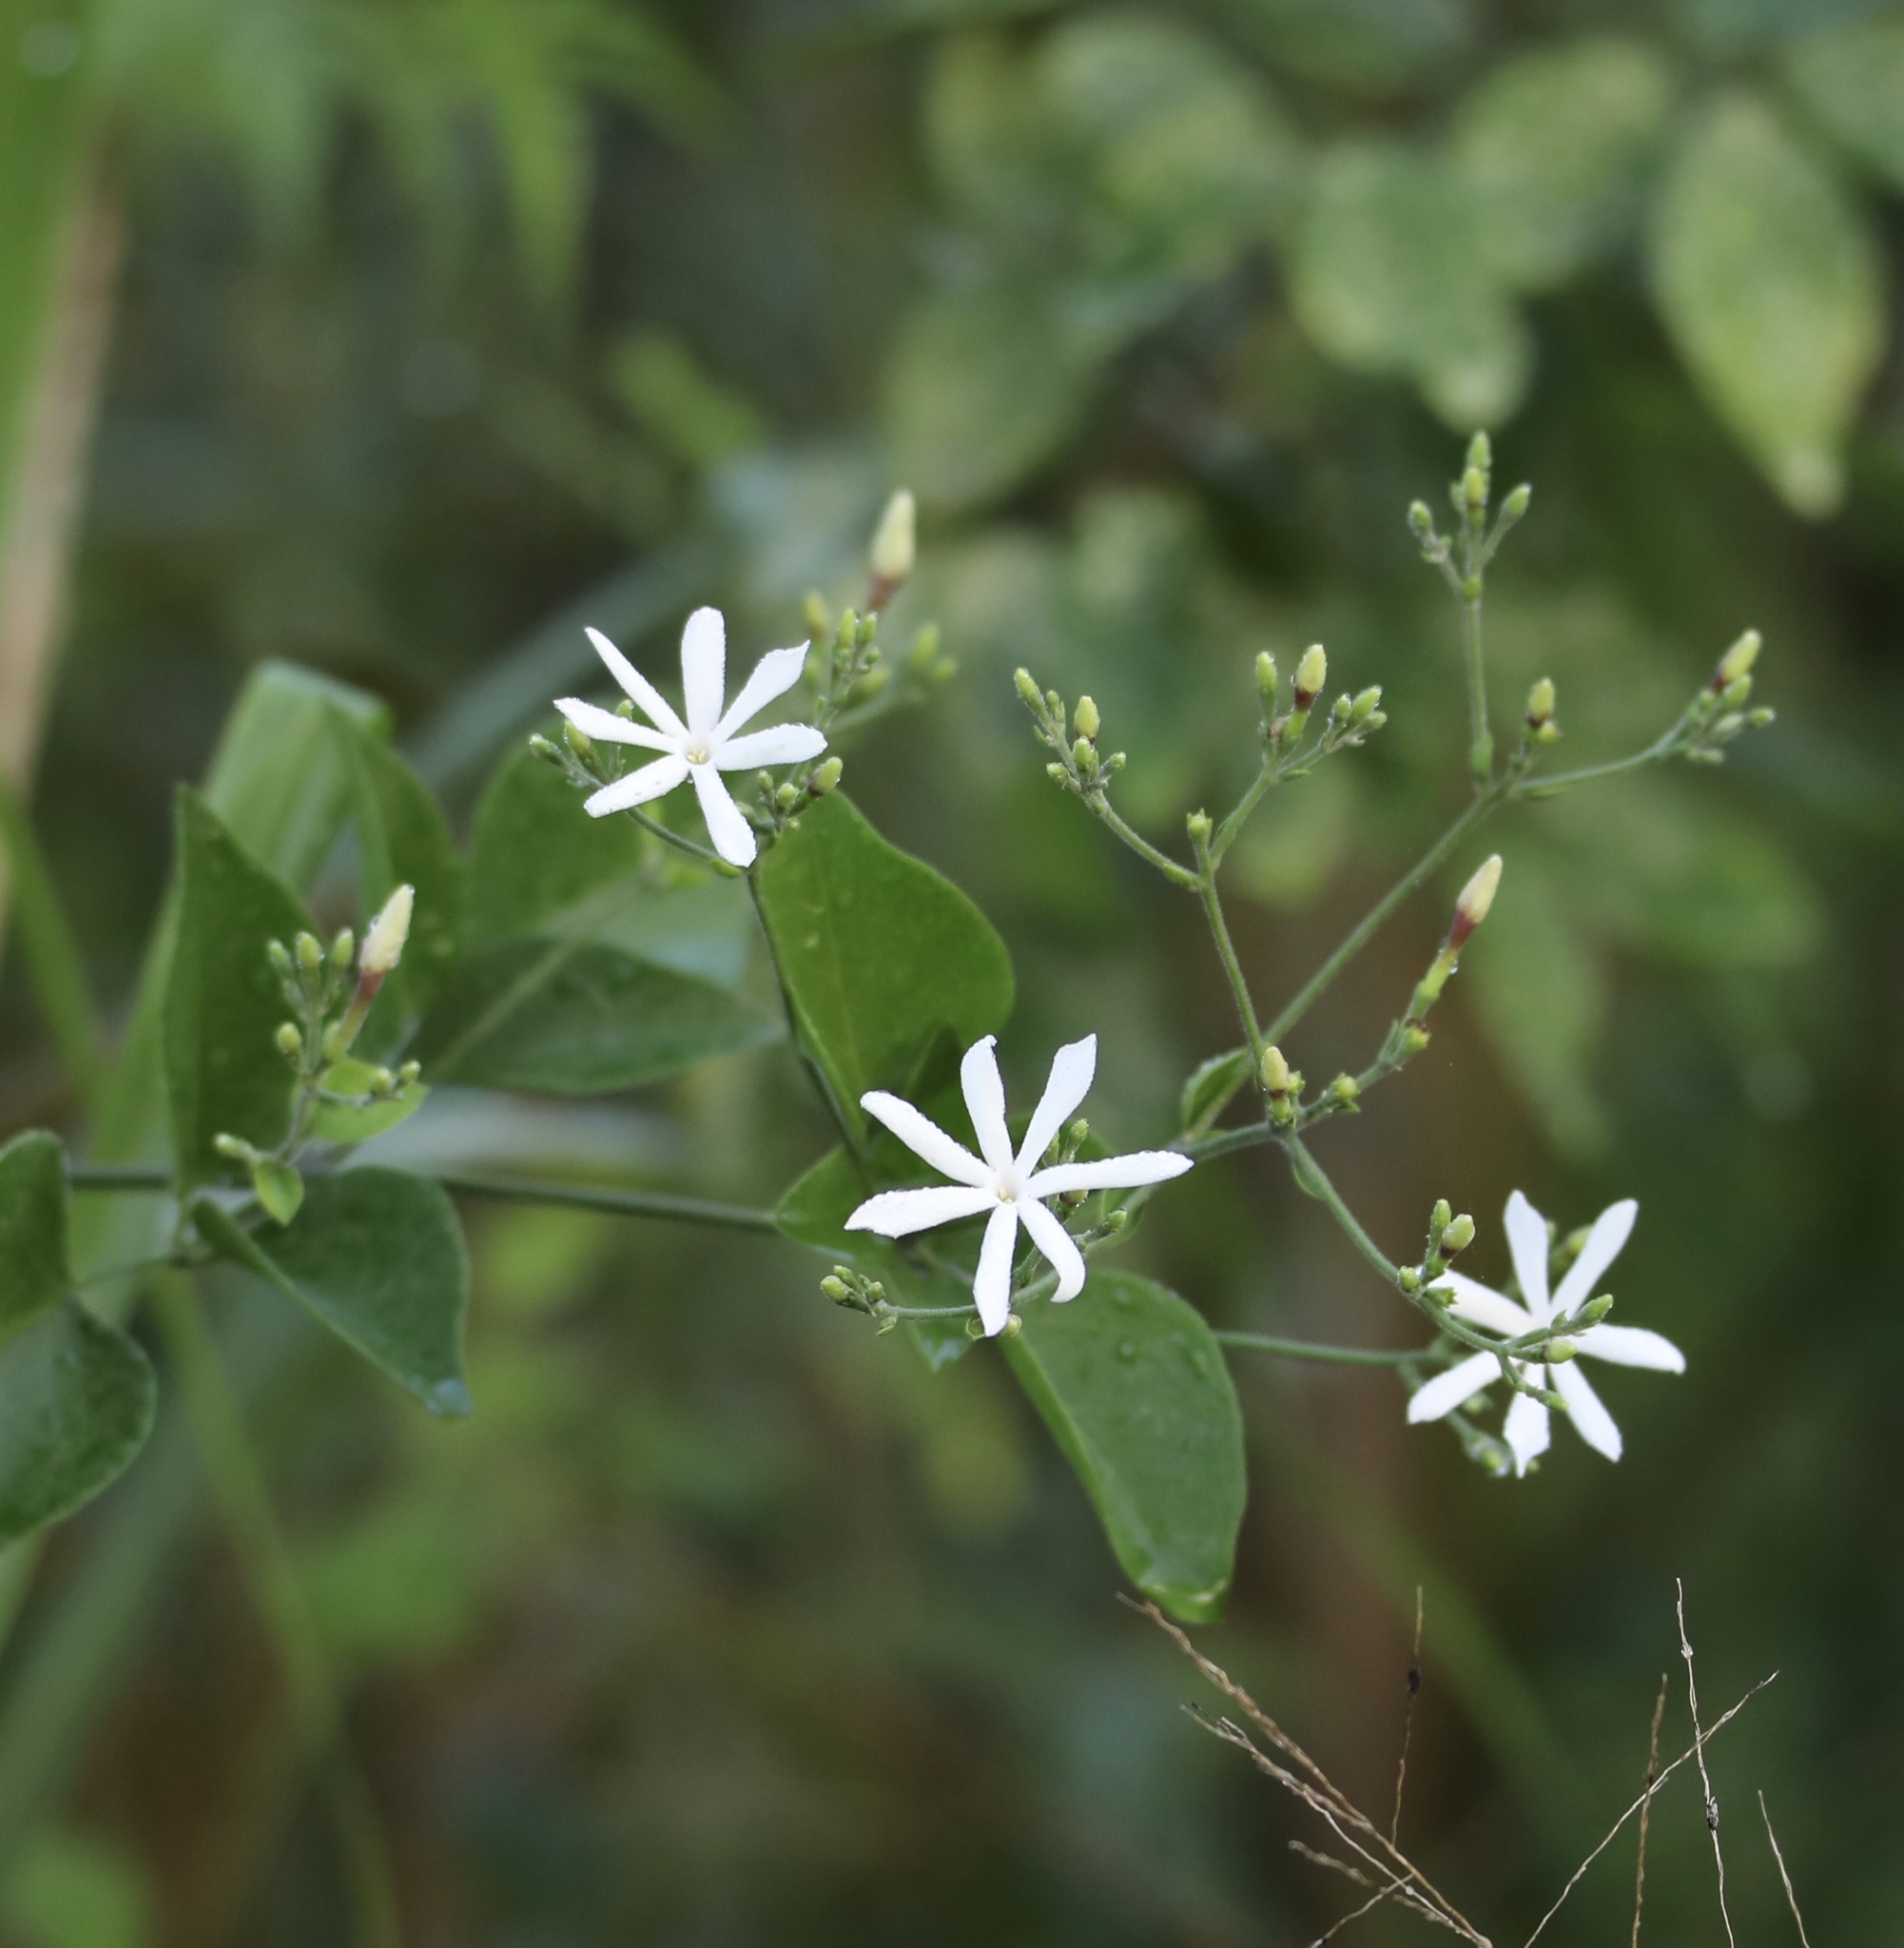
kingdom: Plantae
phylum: Tracheophyta
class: Magnoliopsida
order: Lamiales
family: Oleaceae
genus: Jasminum
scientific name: Jasminum fluminense
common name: Brazilian jasmine
